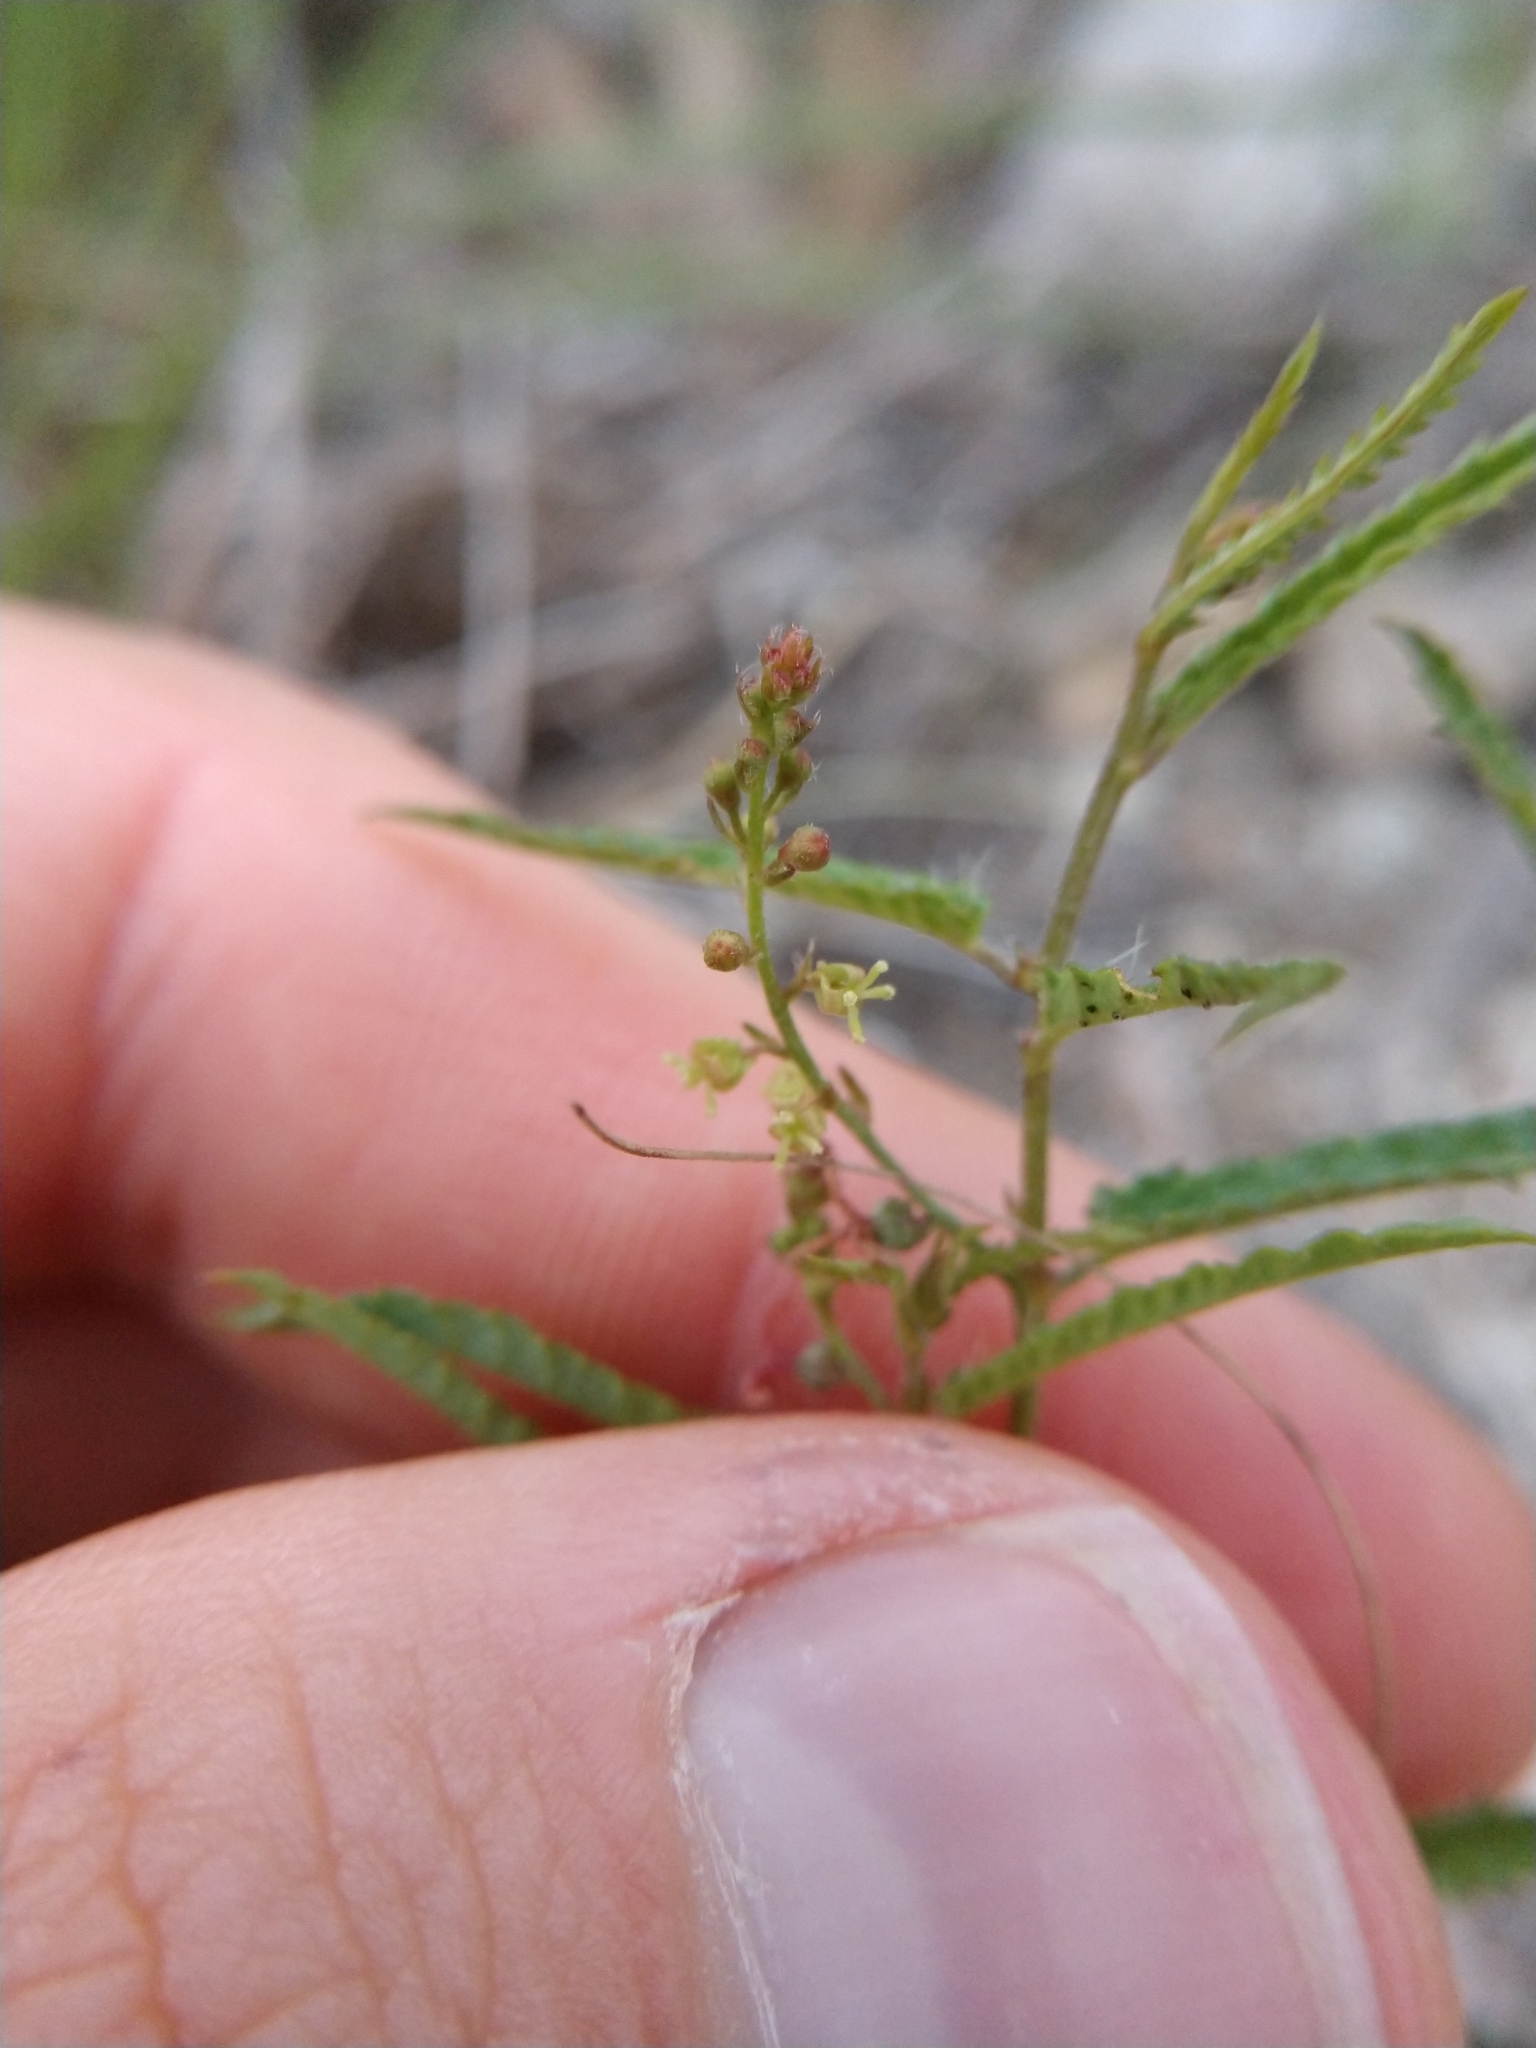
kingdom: Plantae
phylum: Tracheophyta
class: Magnoliopsida
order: Malpighiales
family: Euphorbiaceae
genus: Tragia
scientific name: Tragia ramosa
